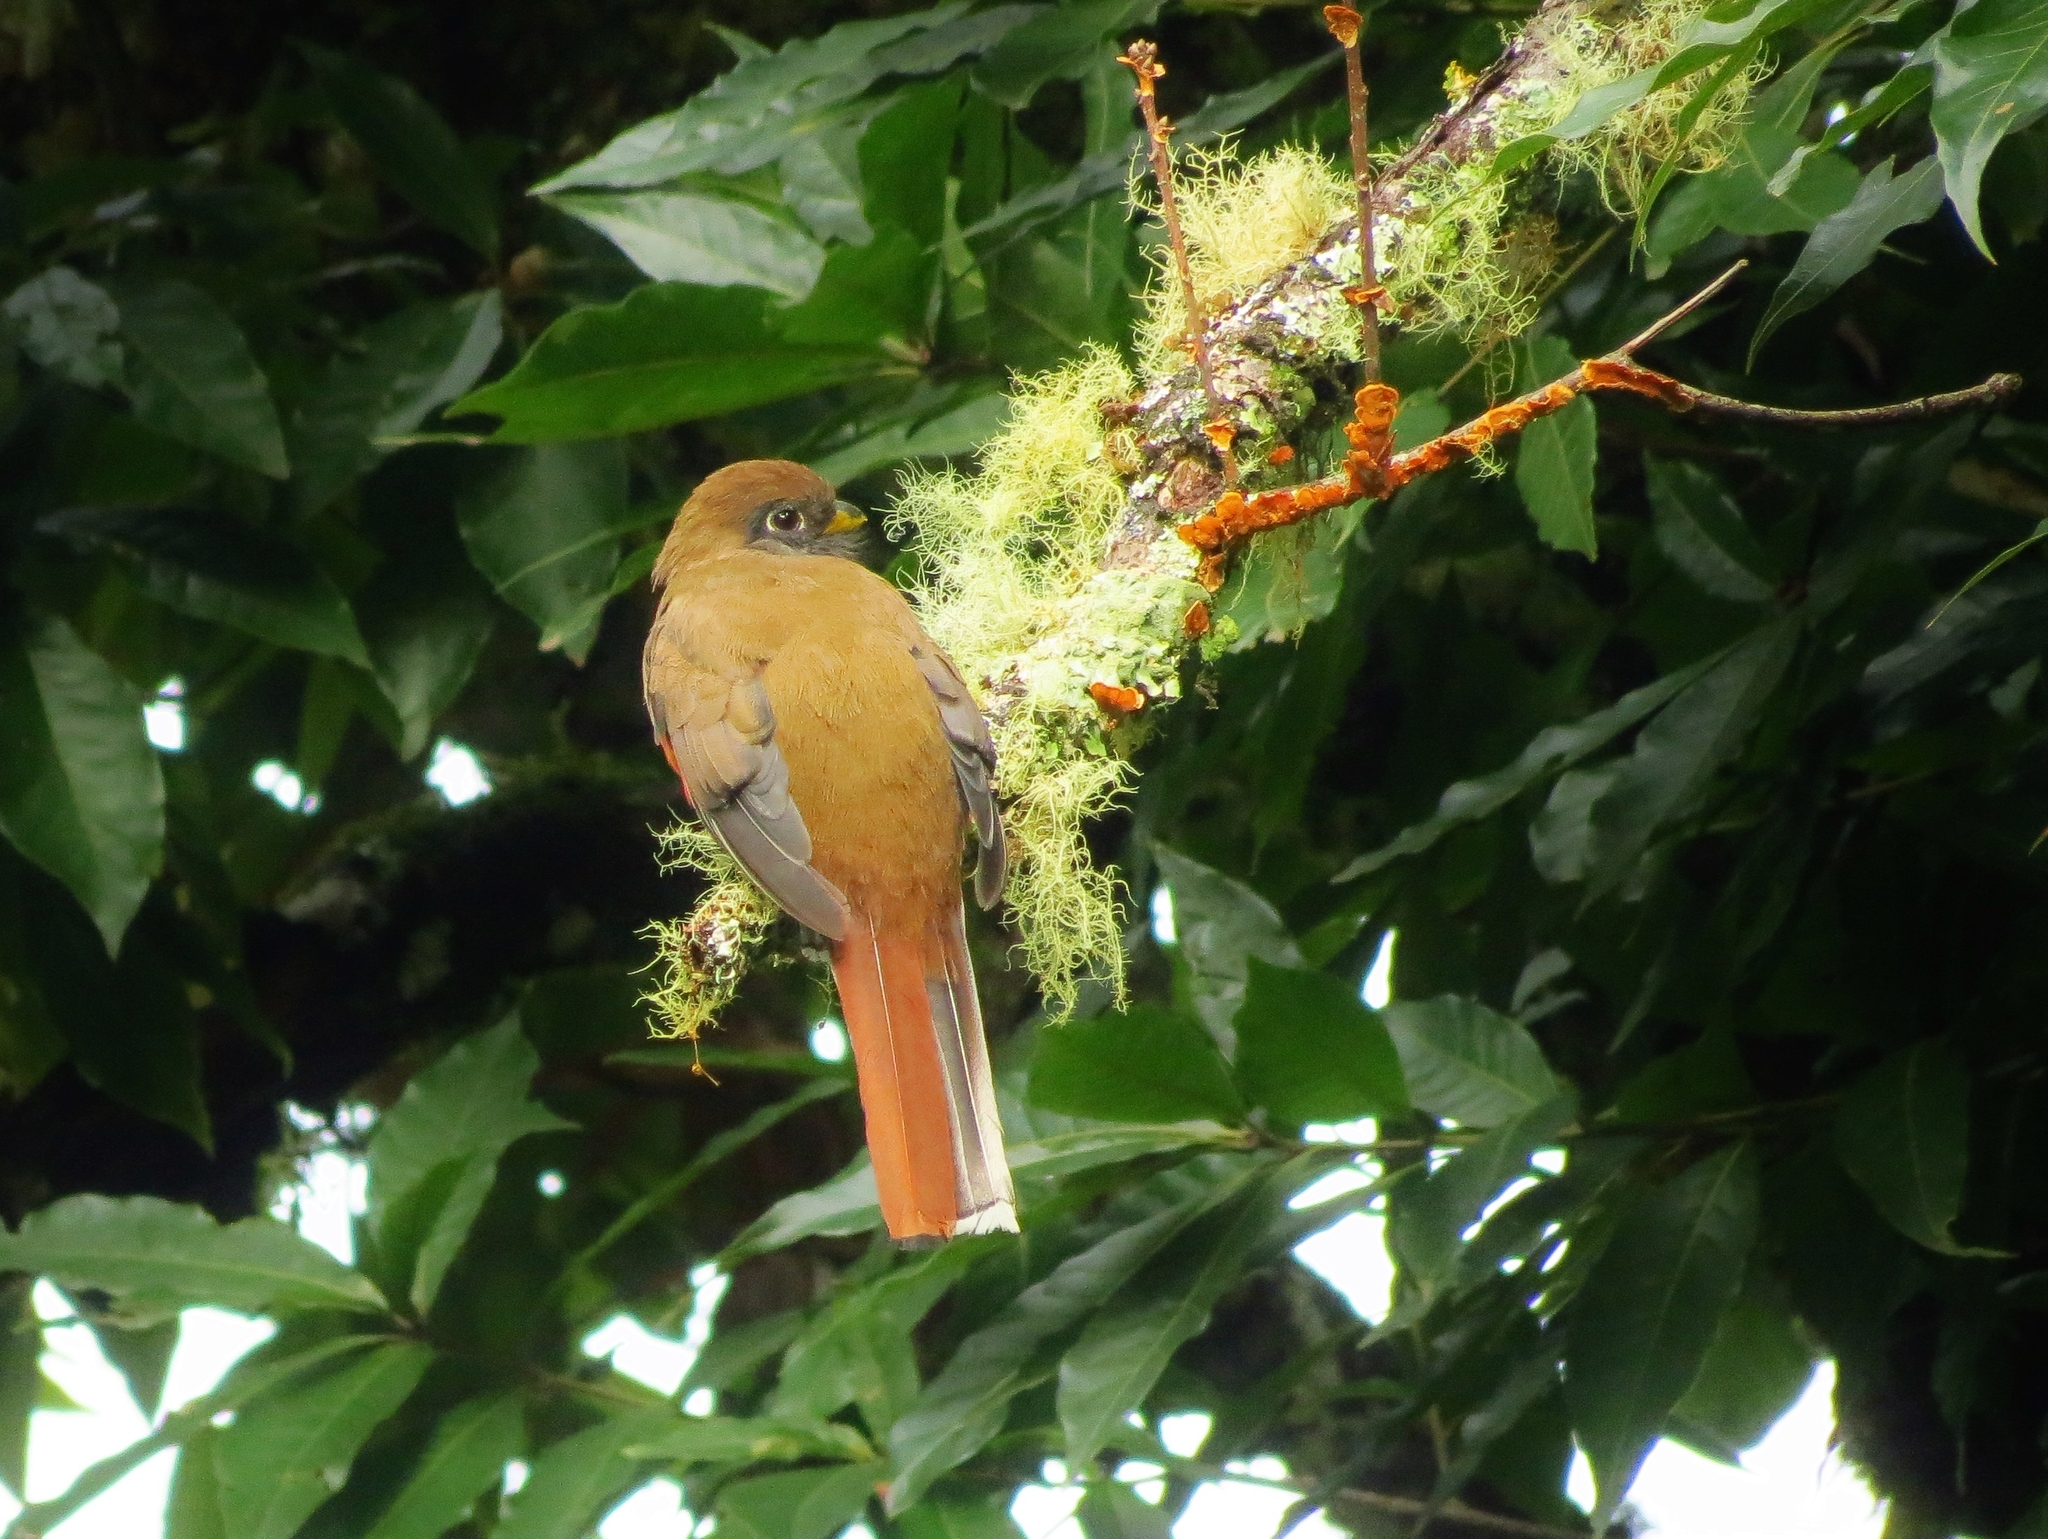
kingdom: Animalia
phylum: Chordata
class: Aves
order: Trogoniformes
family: Trogonidae
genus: Trogon
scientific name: Trogon collaris
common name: Collared trogon
